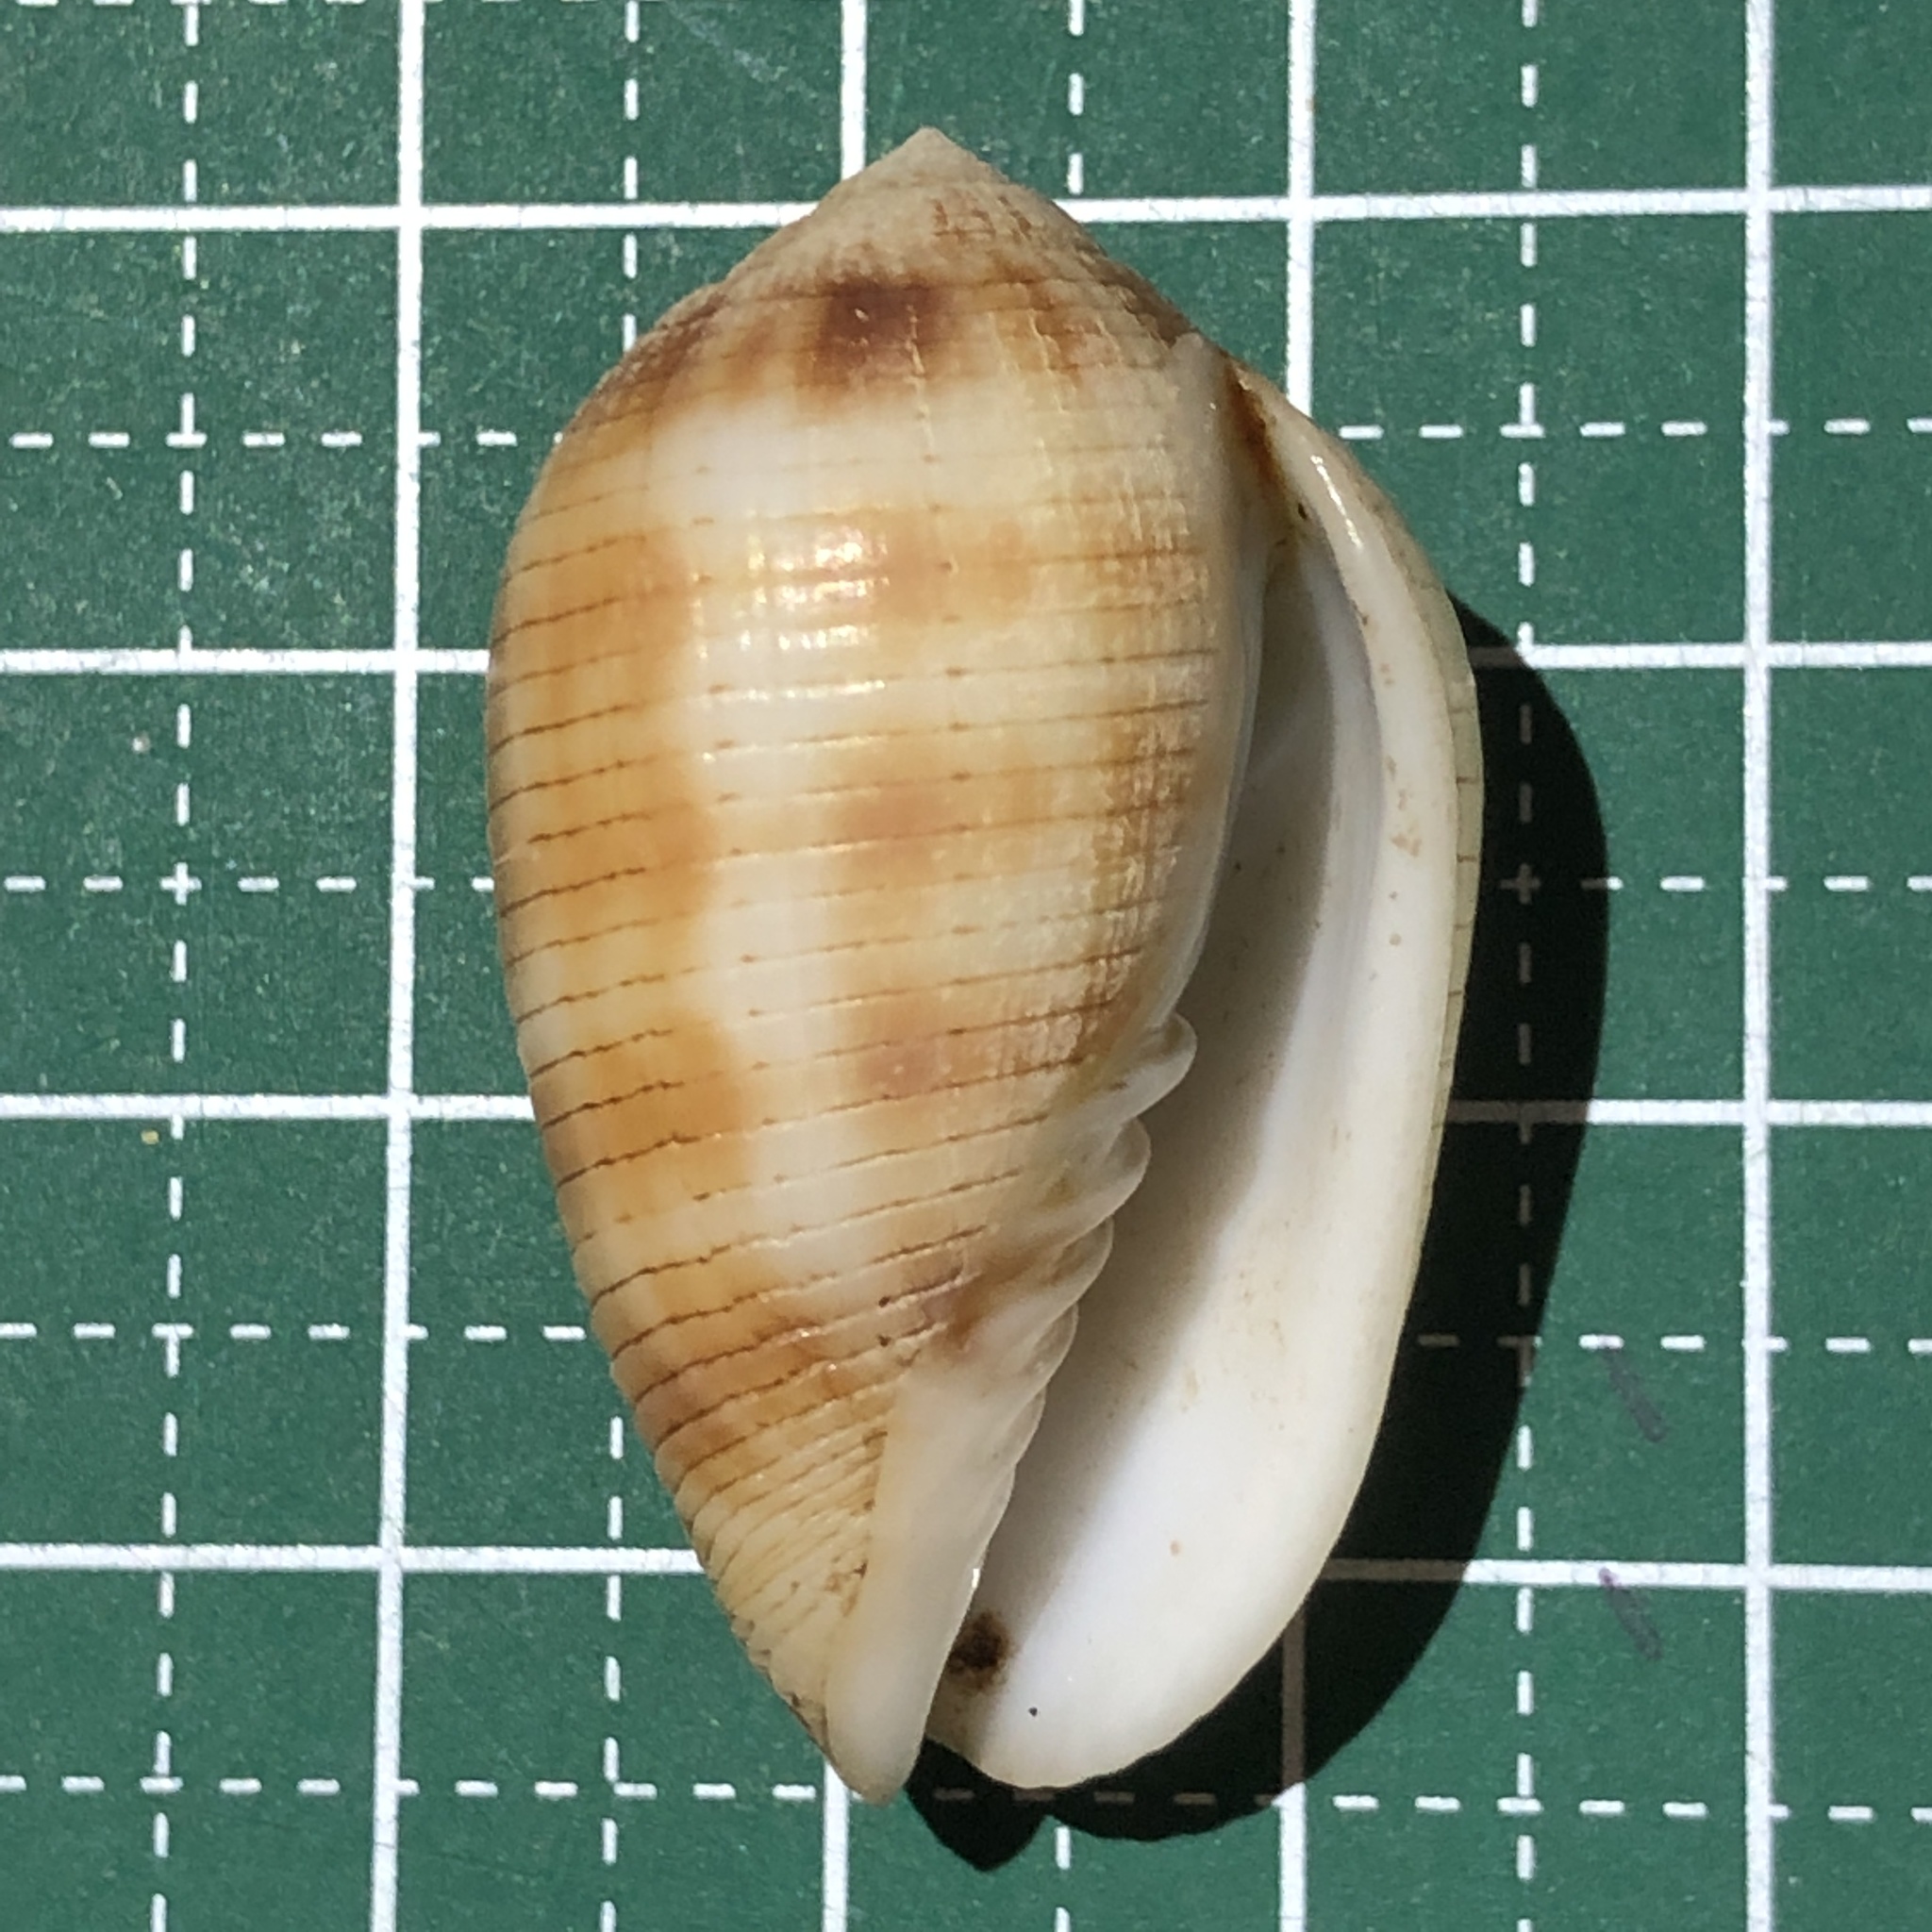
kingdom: Animalia
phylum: Mollusca
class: Gastropoda
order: Neogastropoda
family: Mitridae
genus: Pterygia
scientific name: Pterygia dactylus
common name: Finger miter
